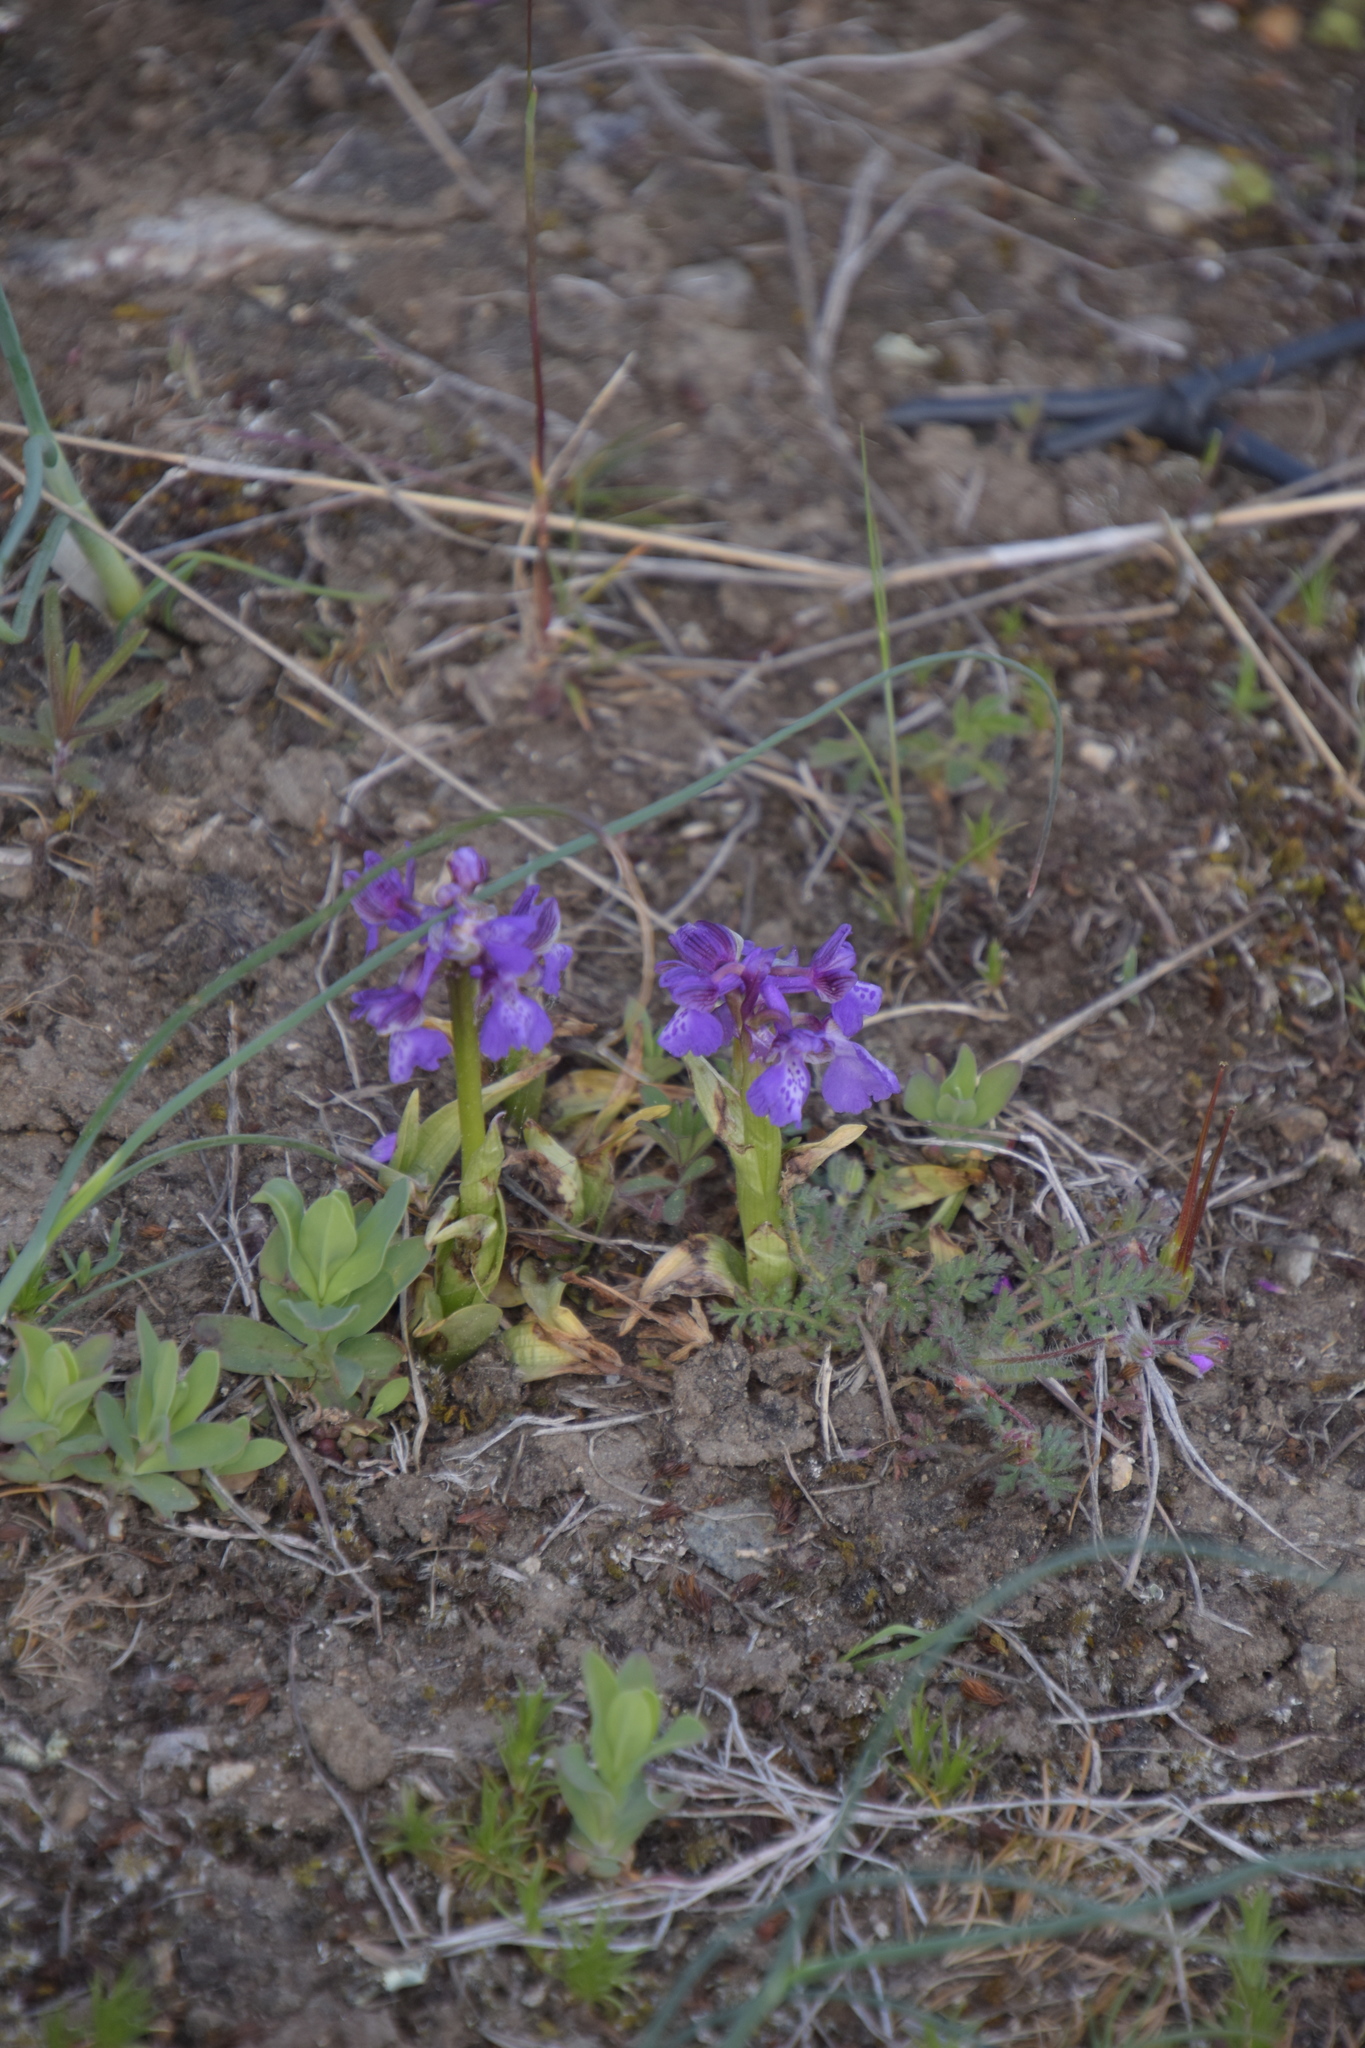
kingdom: Plantae
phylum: Tracheophyta
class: Liliopsida
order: Asparagales
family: Orchidaceae
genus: Anacamptis
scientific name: Anacamptis morio
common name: Green-winged orchid
